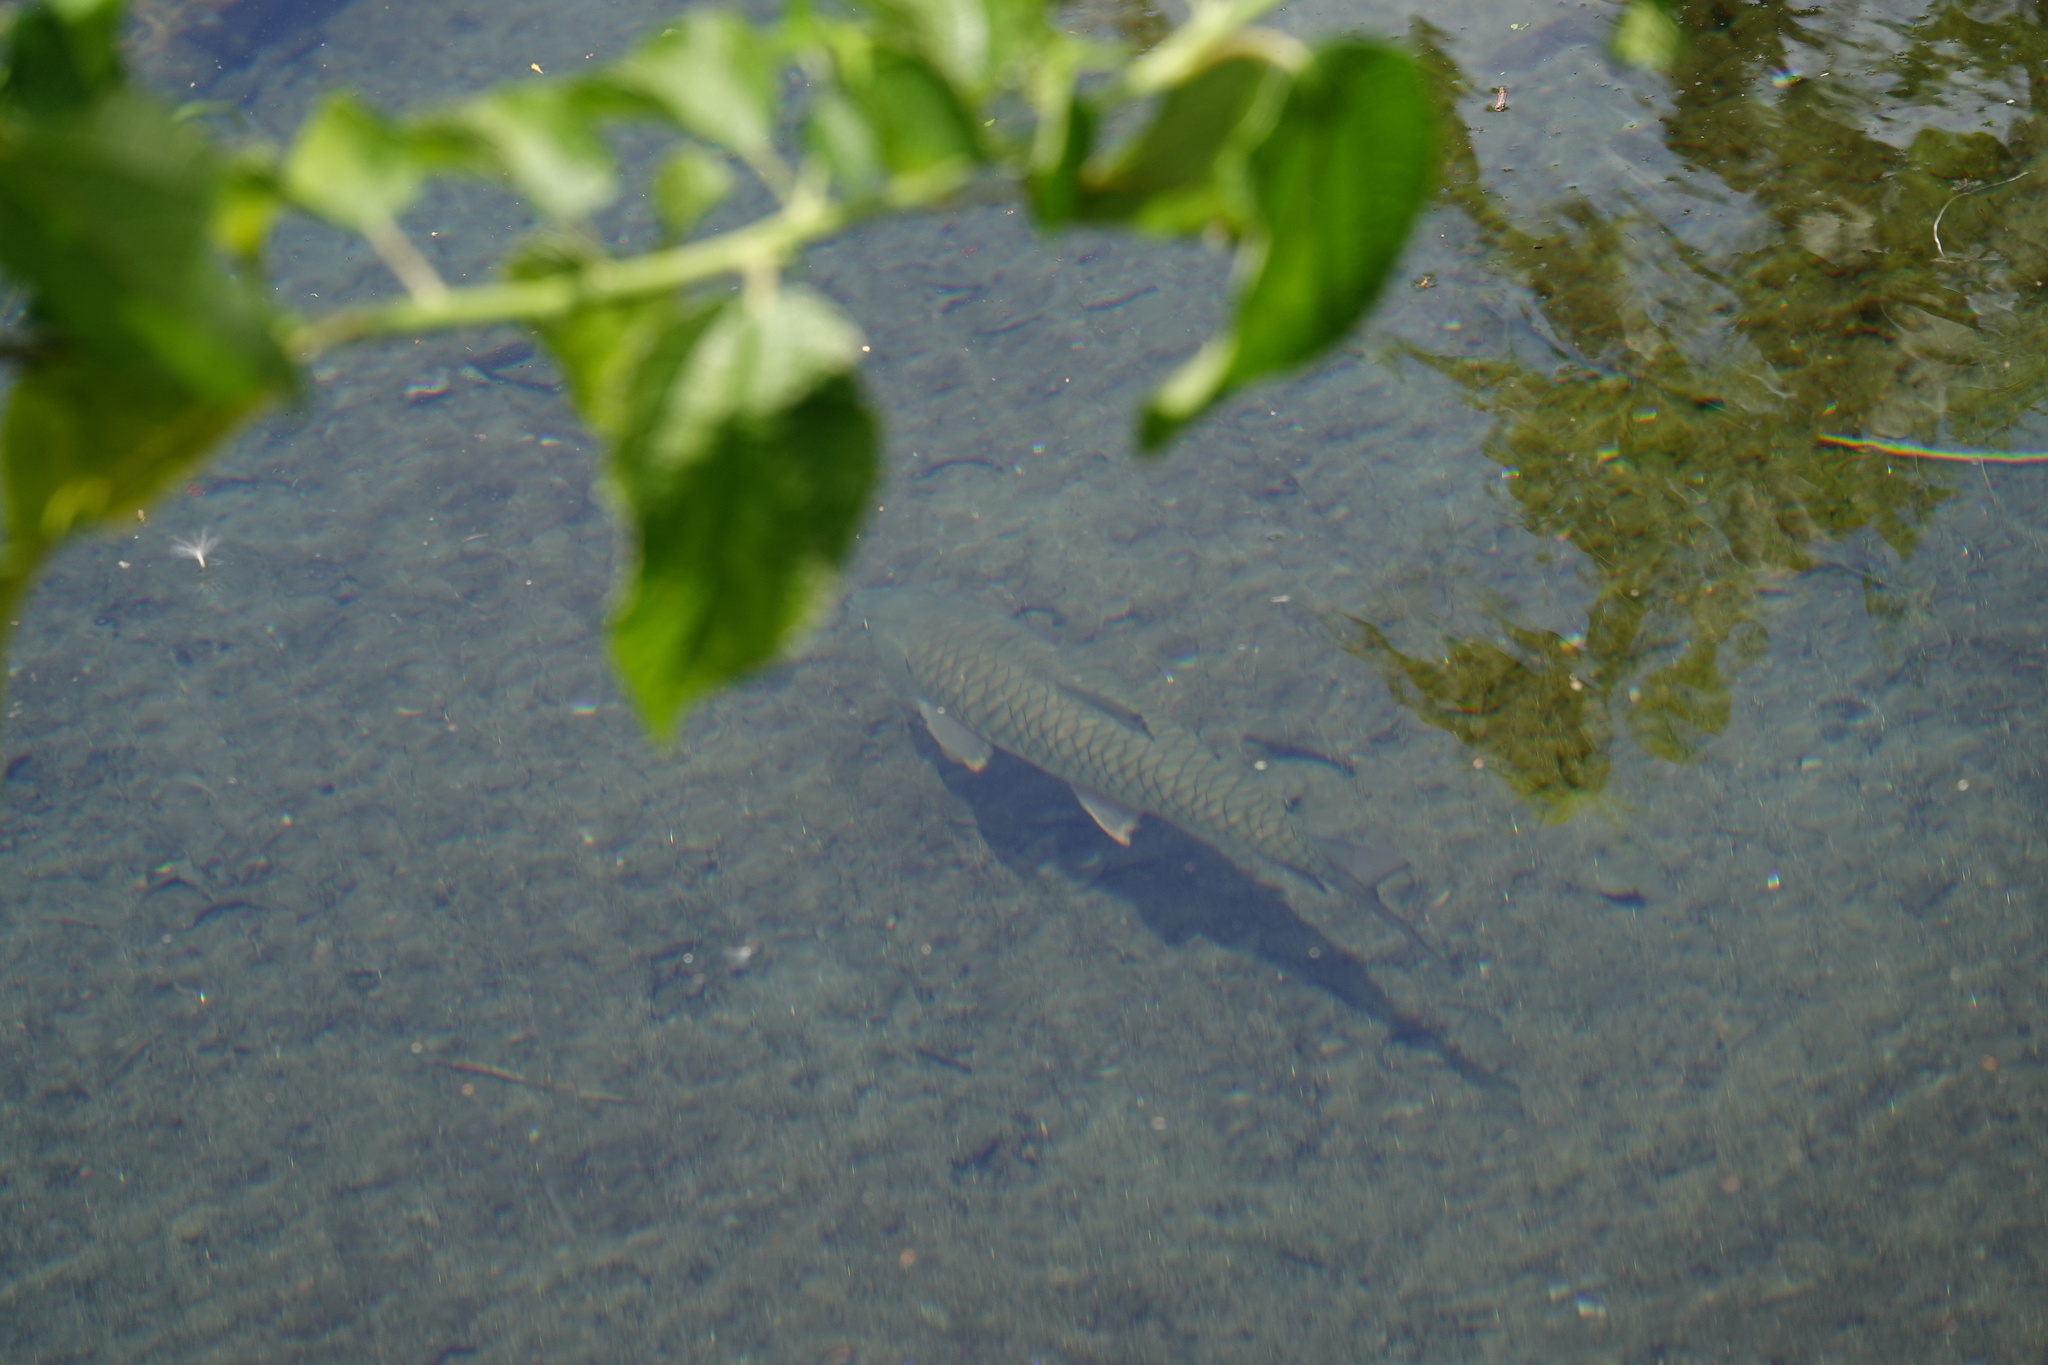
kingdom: Animalia
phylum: Chordata
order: Cypriniformes
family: Cyprinidae
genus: Spinibarbus
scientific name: Spinibarbus hollandi
